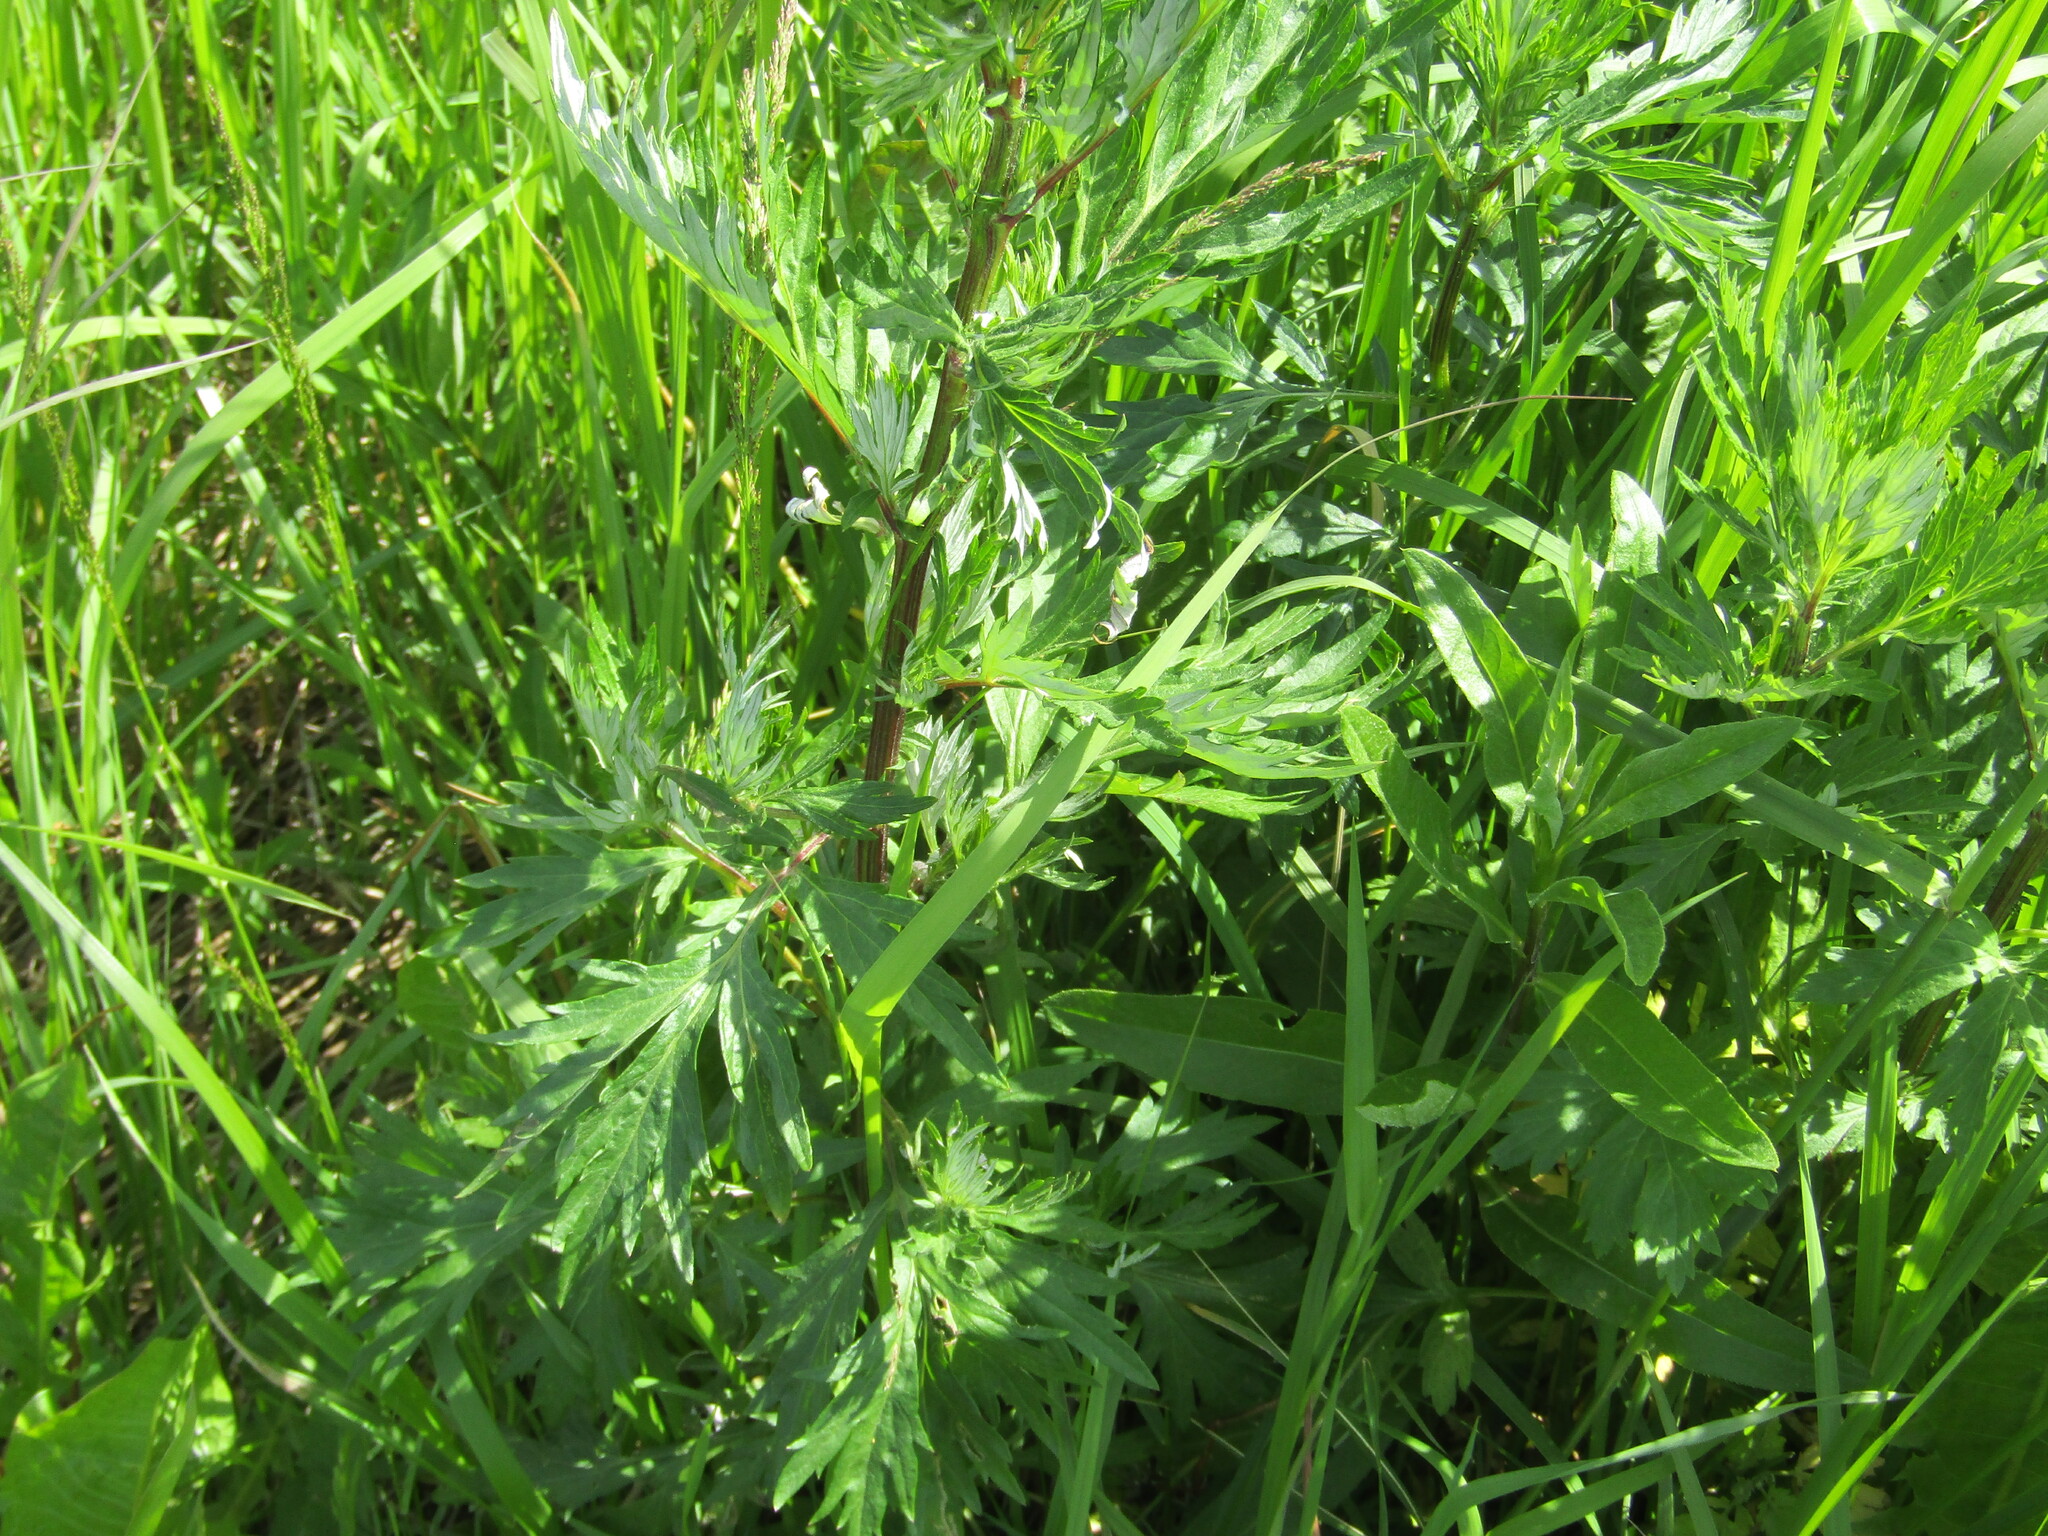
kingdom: Plantae
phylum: Tracheophyta
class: Magnoliopsida
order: Asterales
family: Asteraceae
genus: Artemisia
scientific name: Artemisia vulgaris
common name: Mugwort
